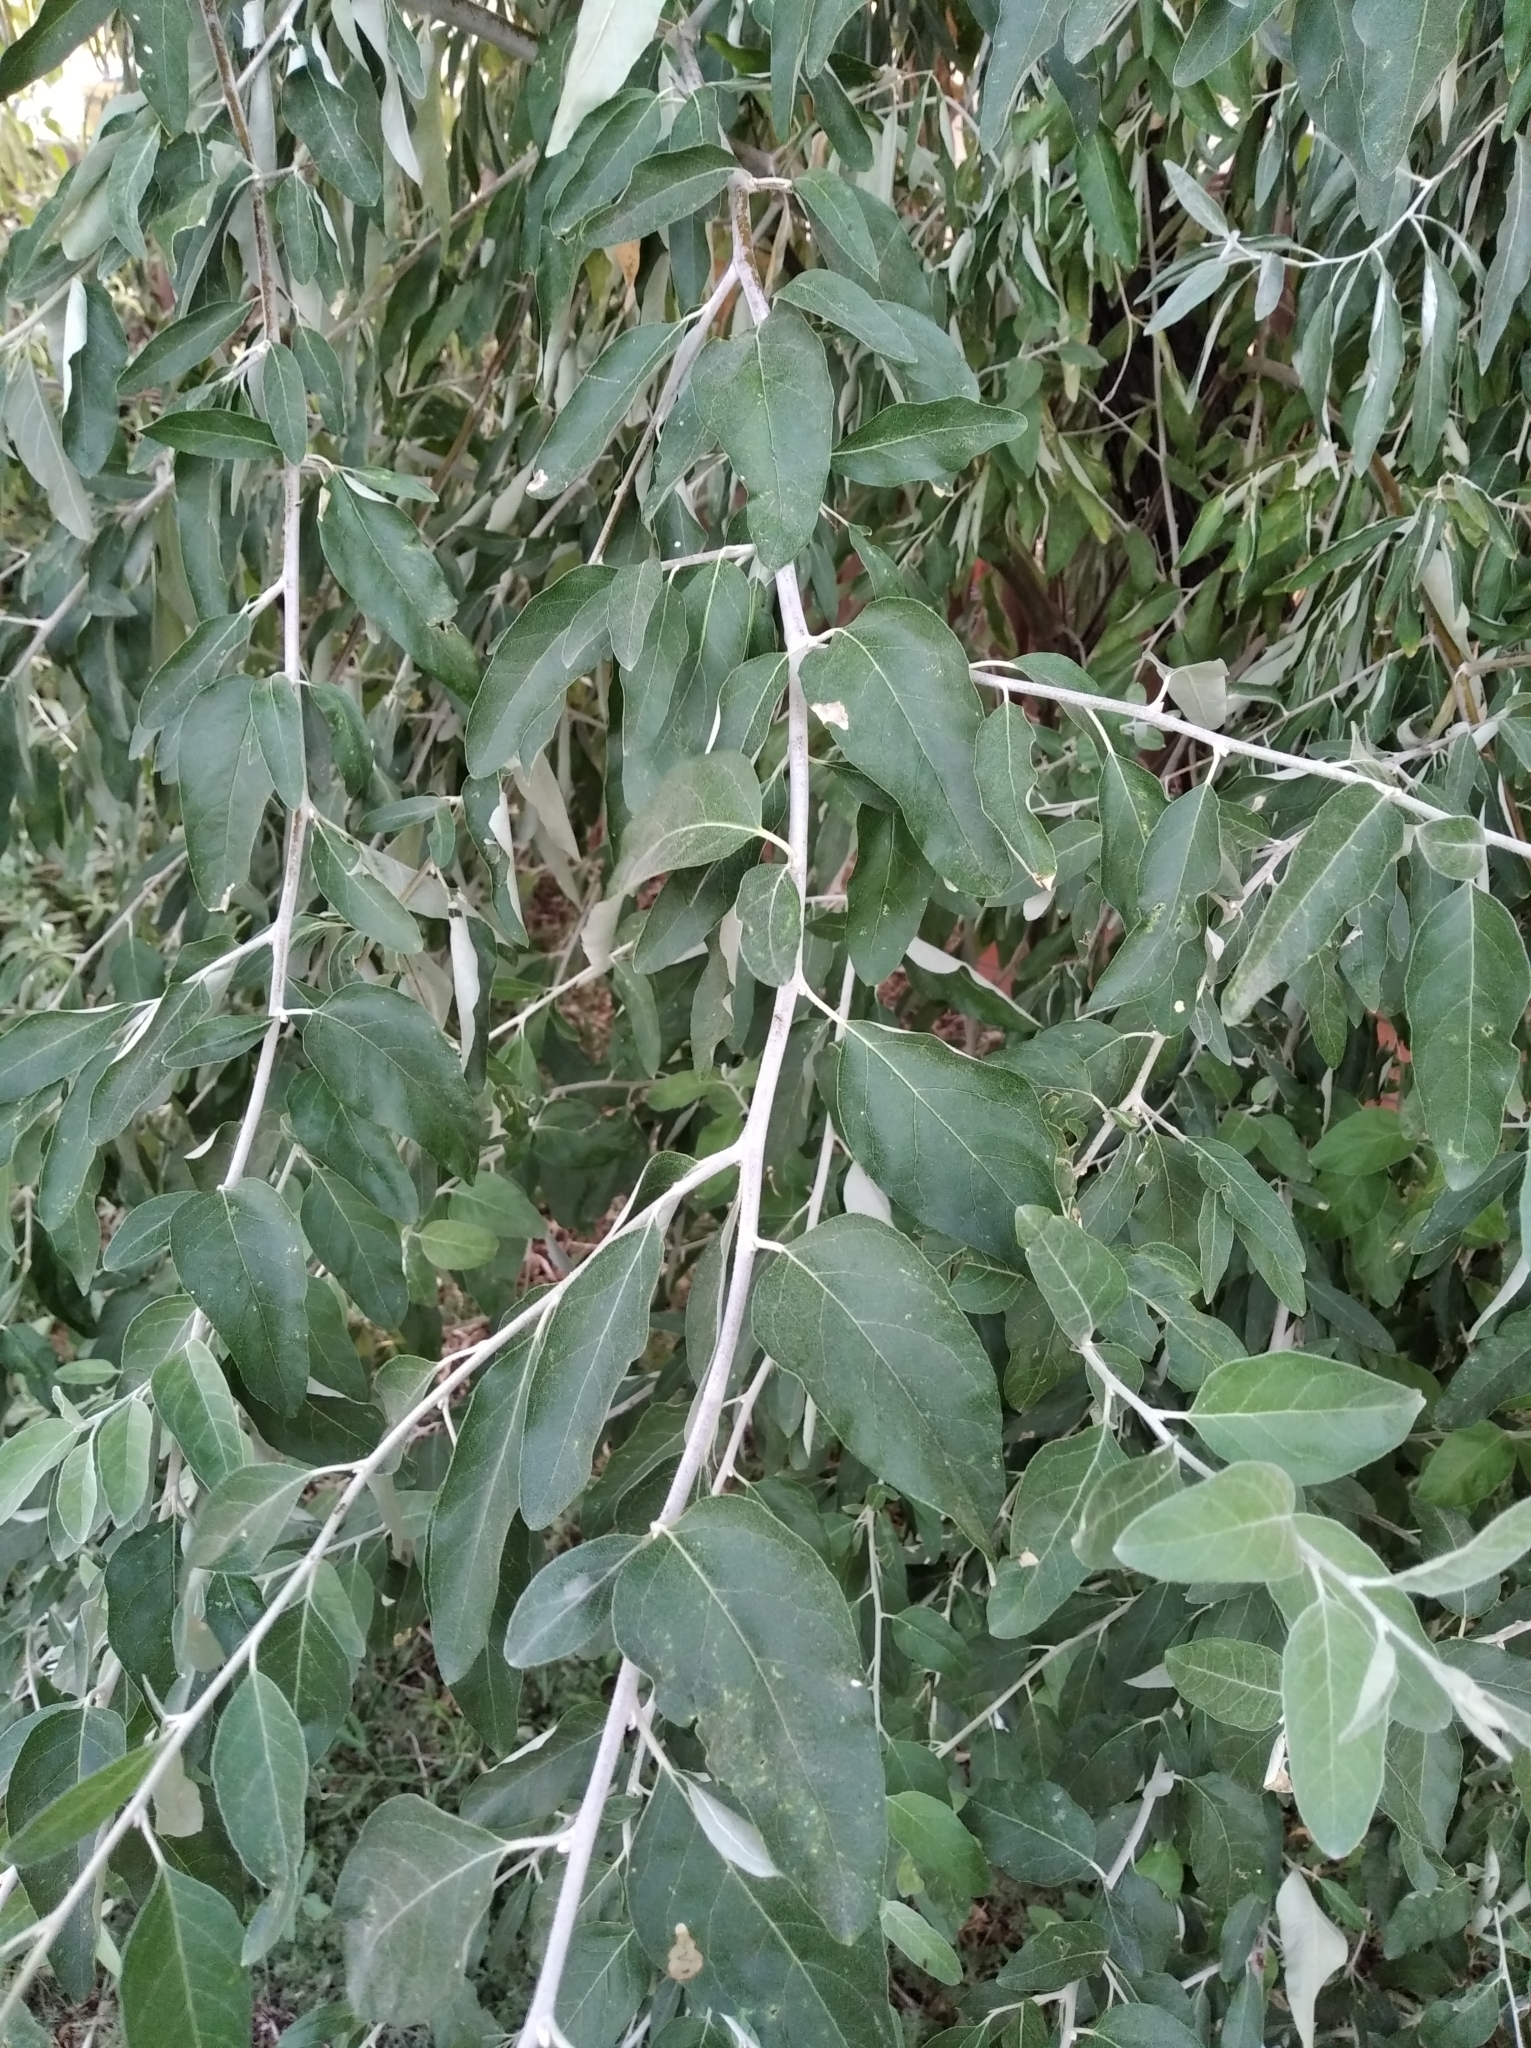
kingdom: Plantae
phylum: Tracheophyta
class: Magnoliopsida
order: Rosales
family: Elaeagnaceae
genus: Elaeagnus
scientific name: Elaeagnus angustifolia
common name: Russian olive
